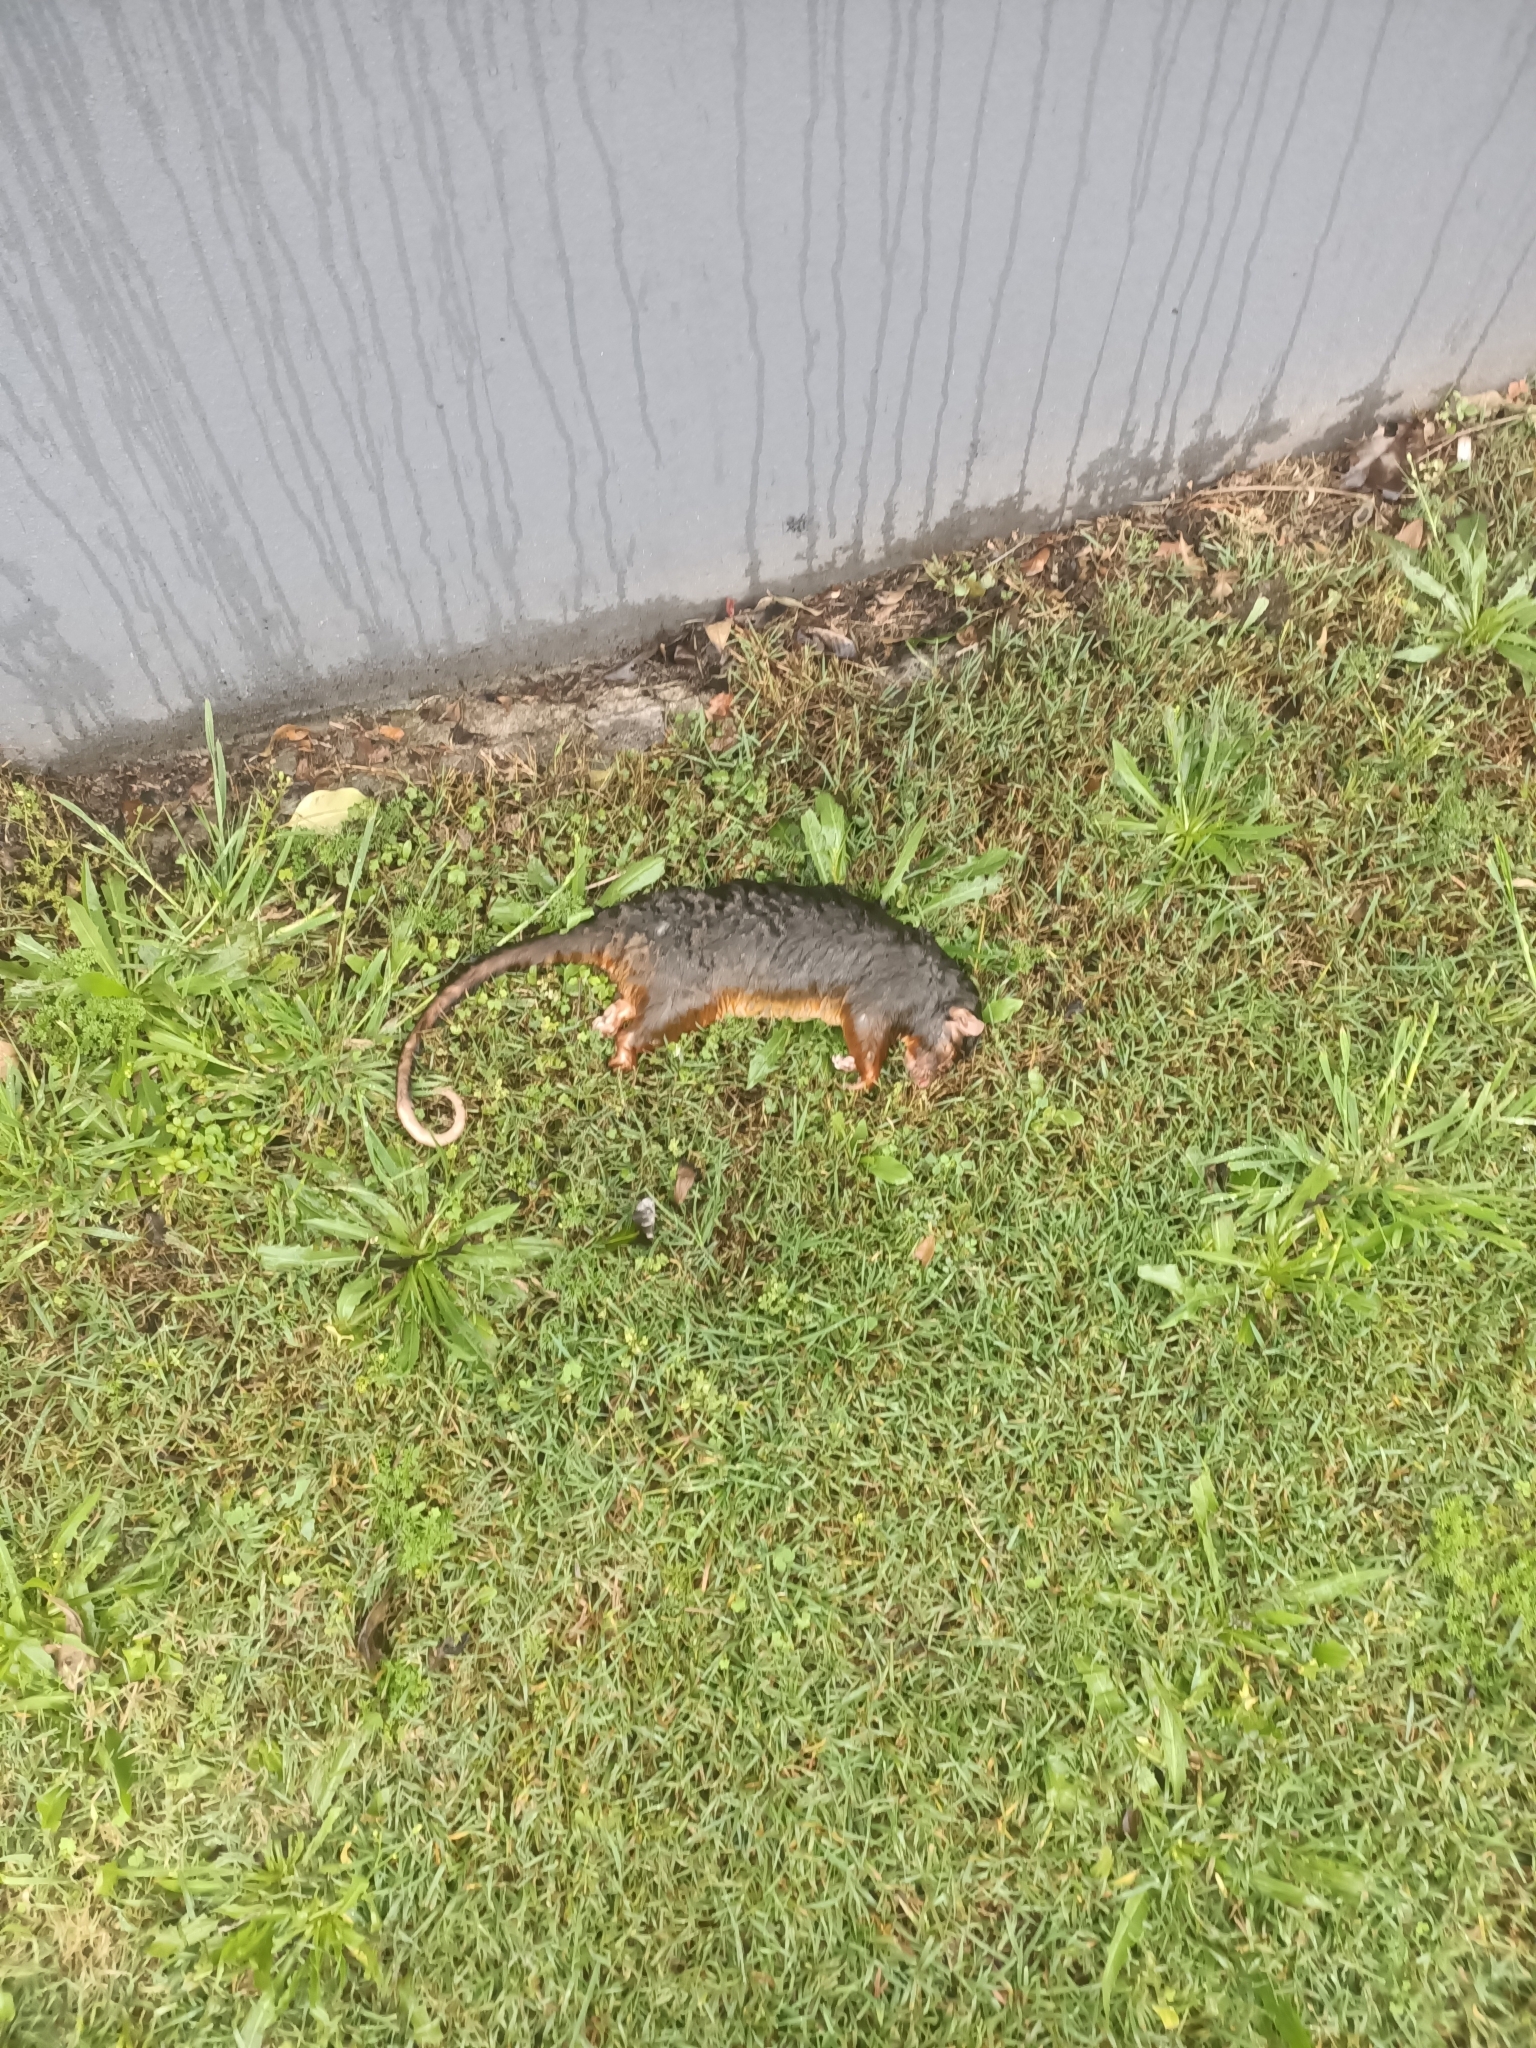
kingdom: Animalia
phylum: Chordata
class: Mammalia
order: Diprotodontia
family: Pseudocheiridae
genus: Pseudocheirus
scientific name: Pseudocheirus peregrinus
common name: Common ringtail possum
